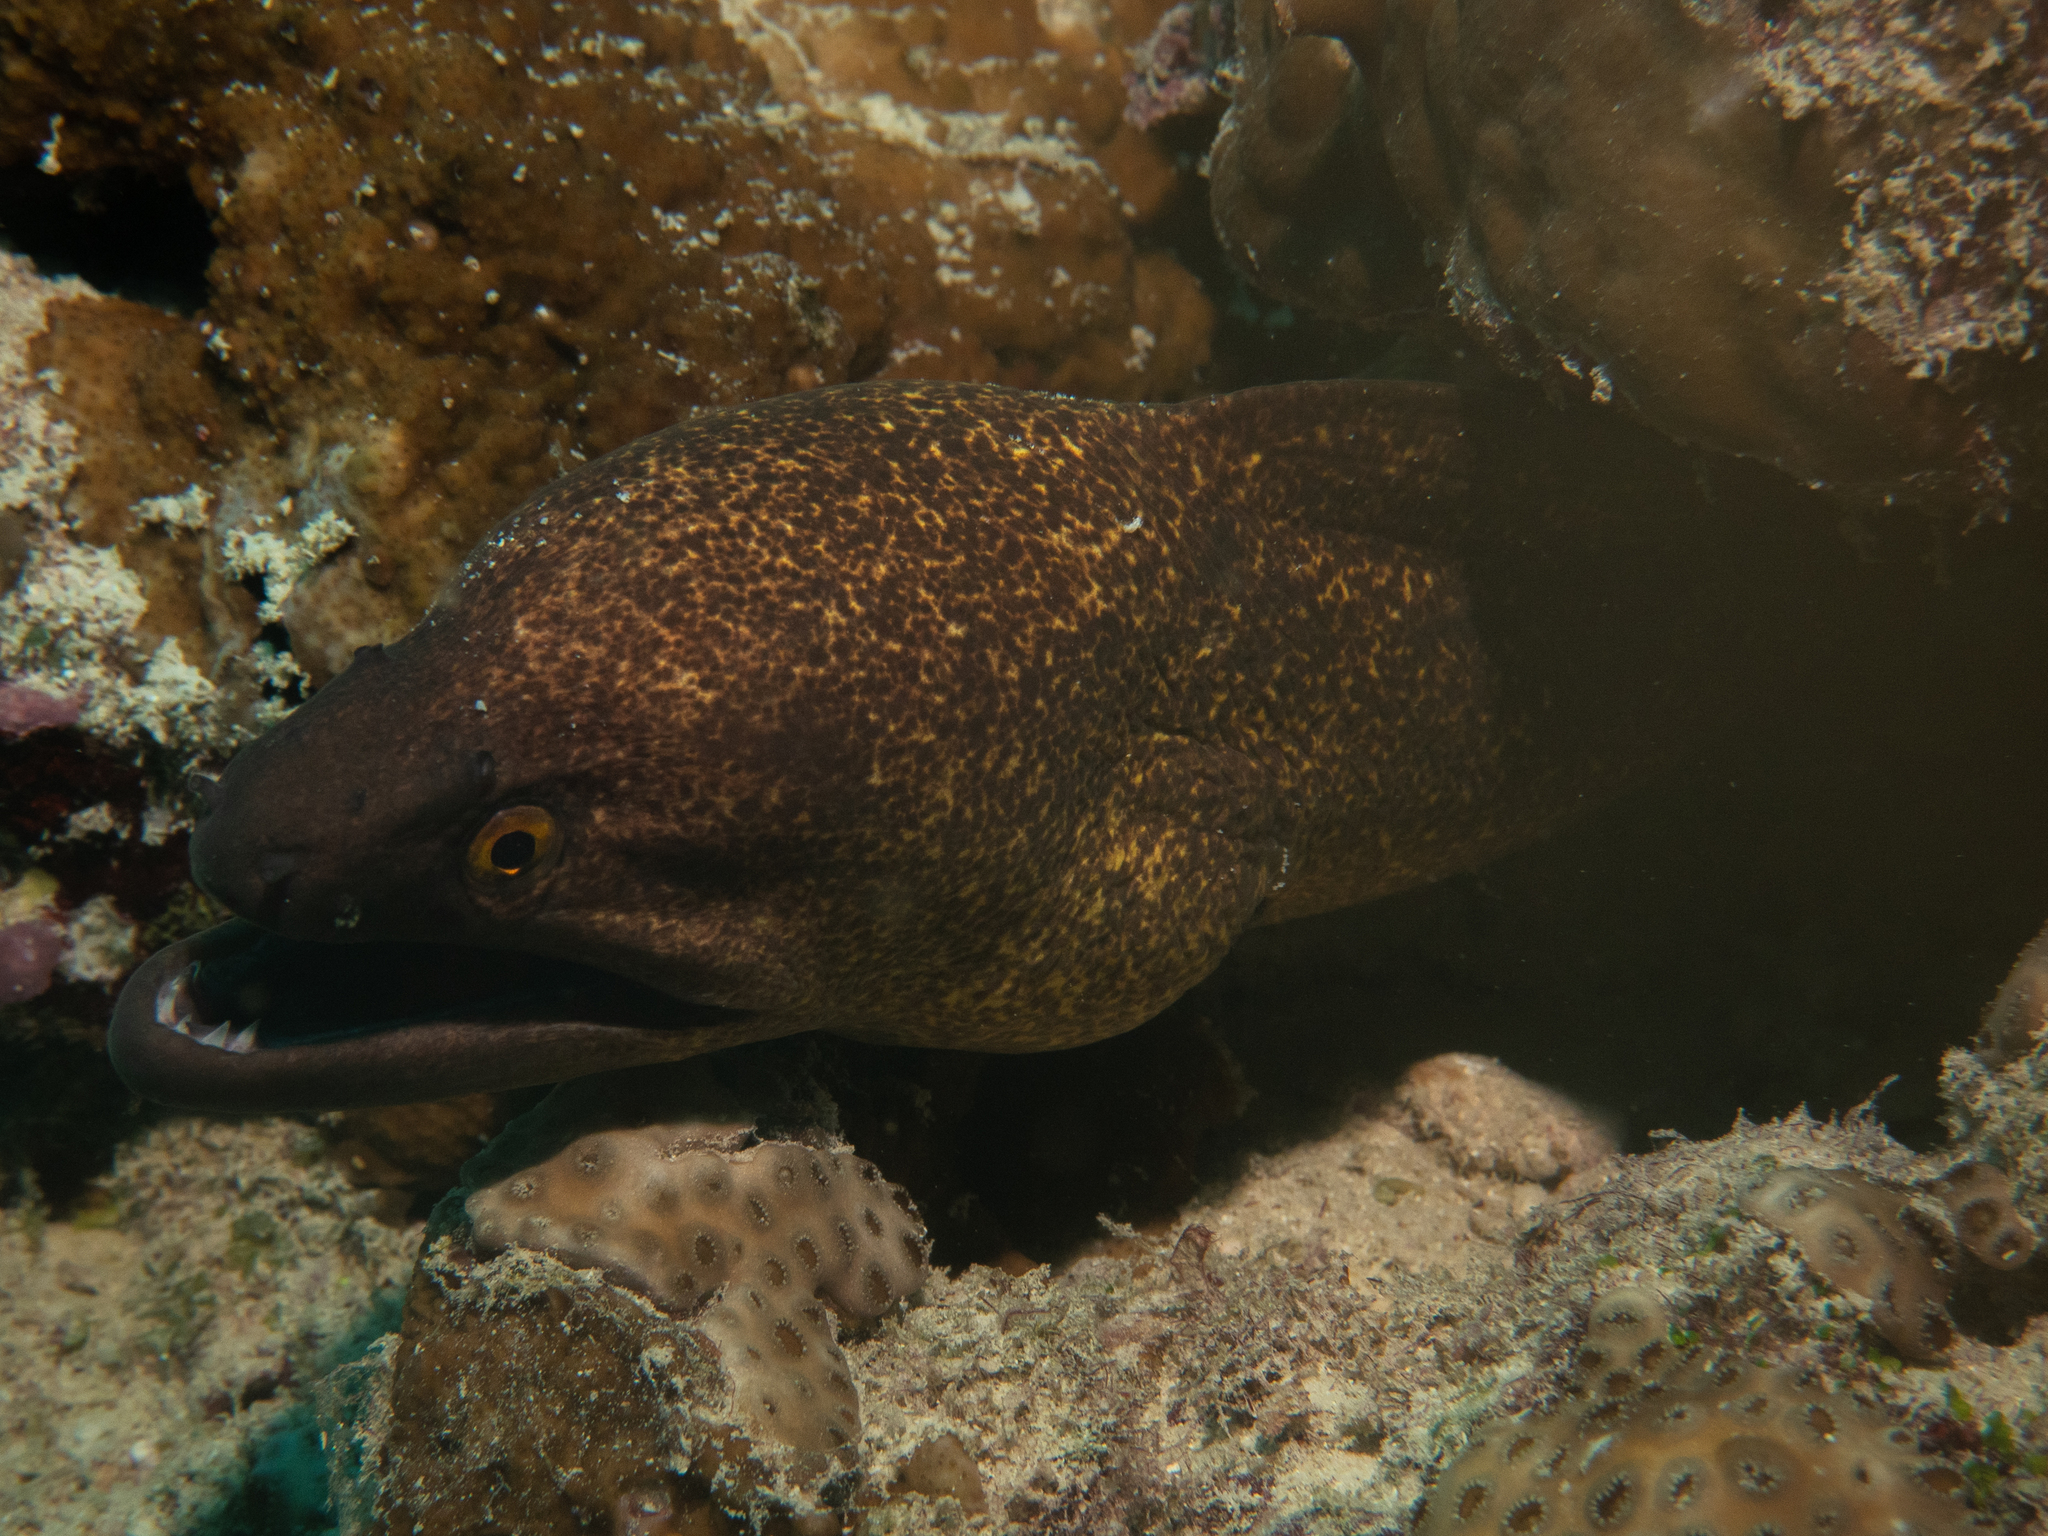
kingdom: Animalia
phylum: Chordata
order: Anguilliformes
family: Muraenidae
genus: Gymnothorax
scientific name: Gymnothorax flavimarginatus
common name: Yellow-edged moray
